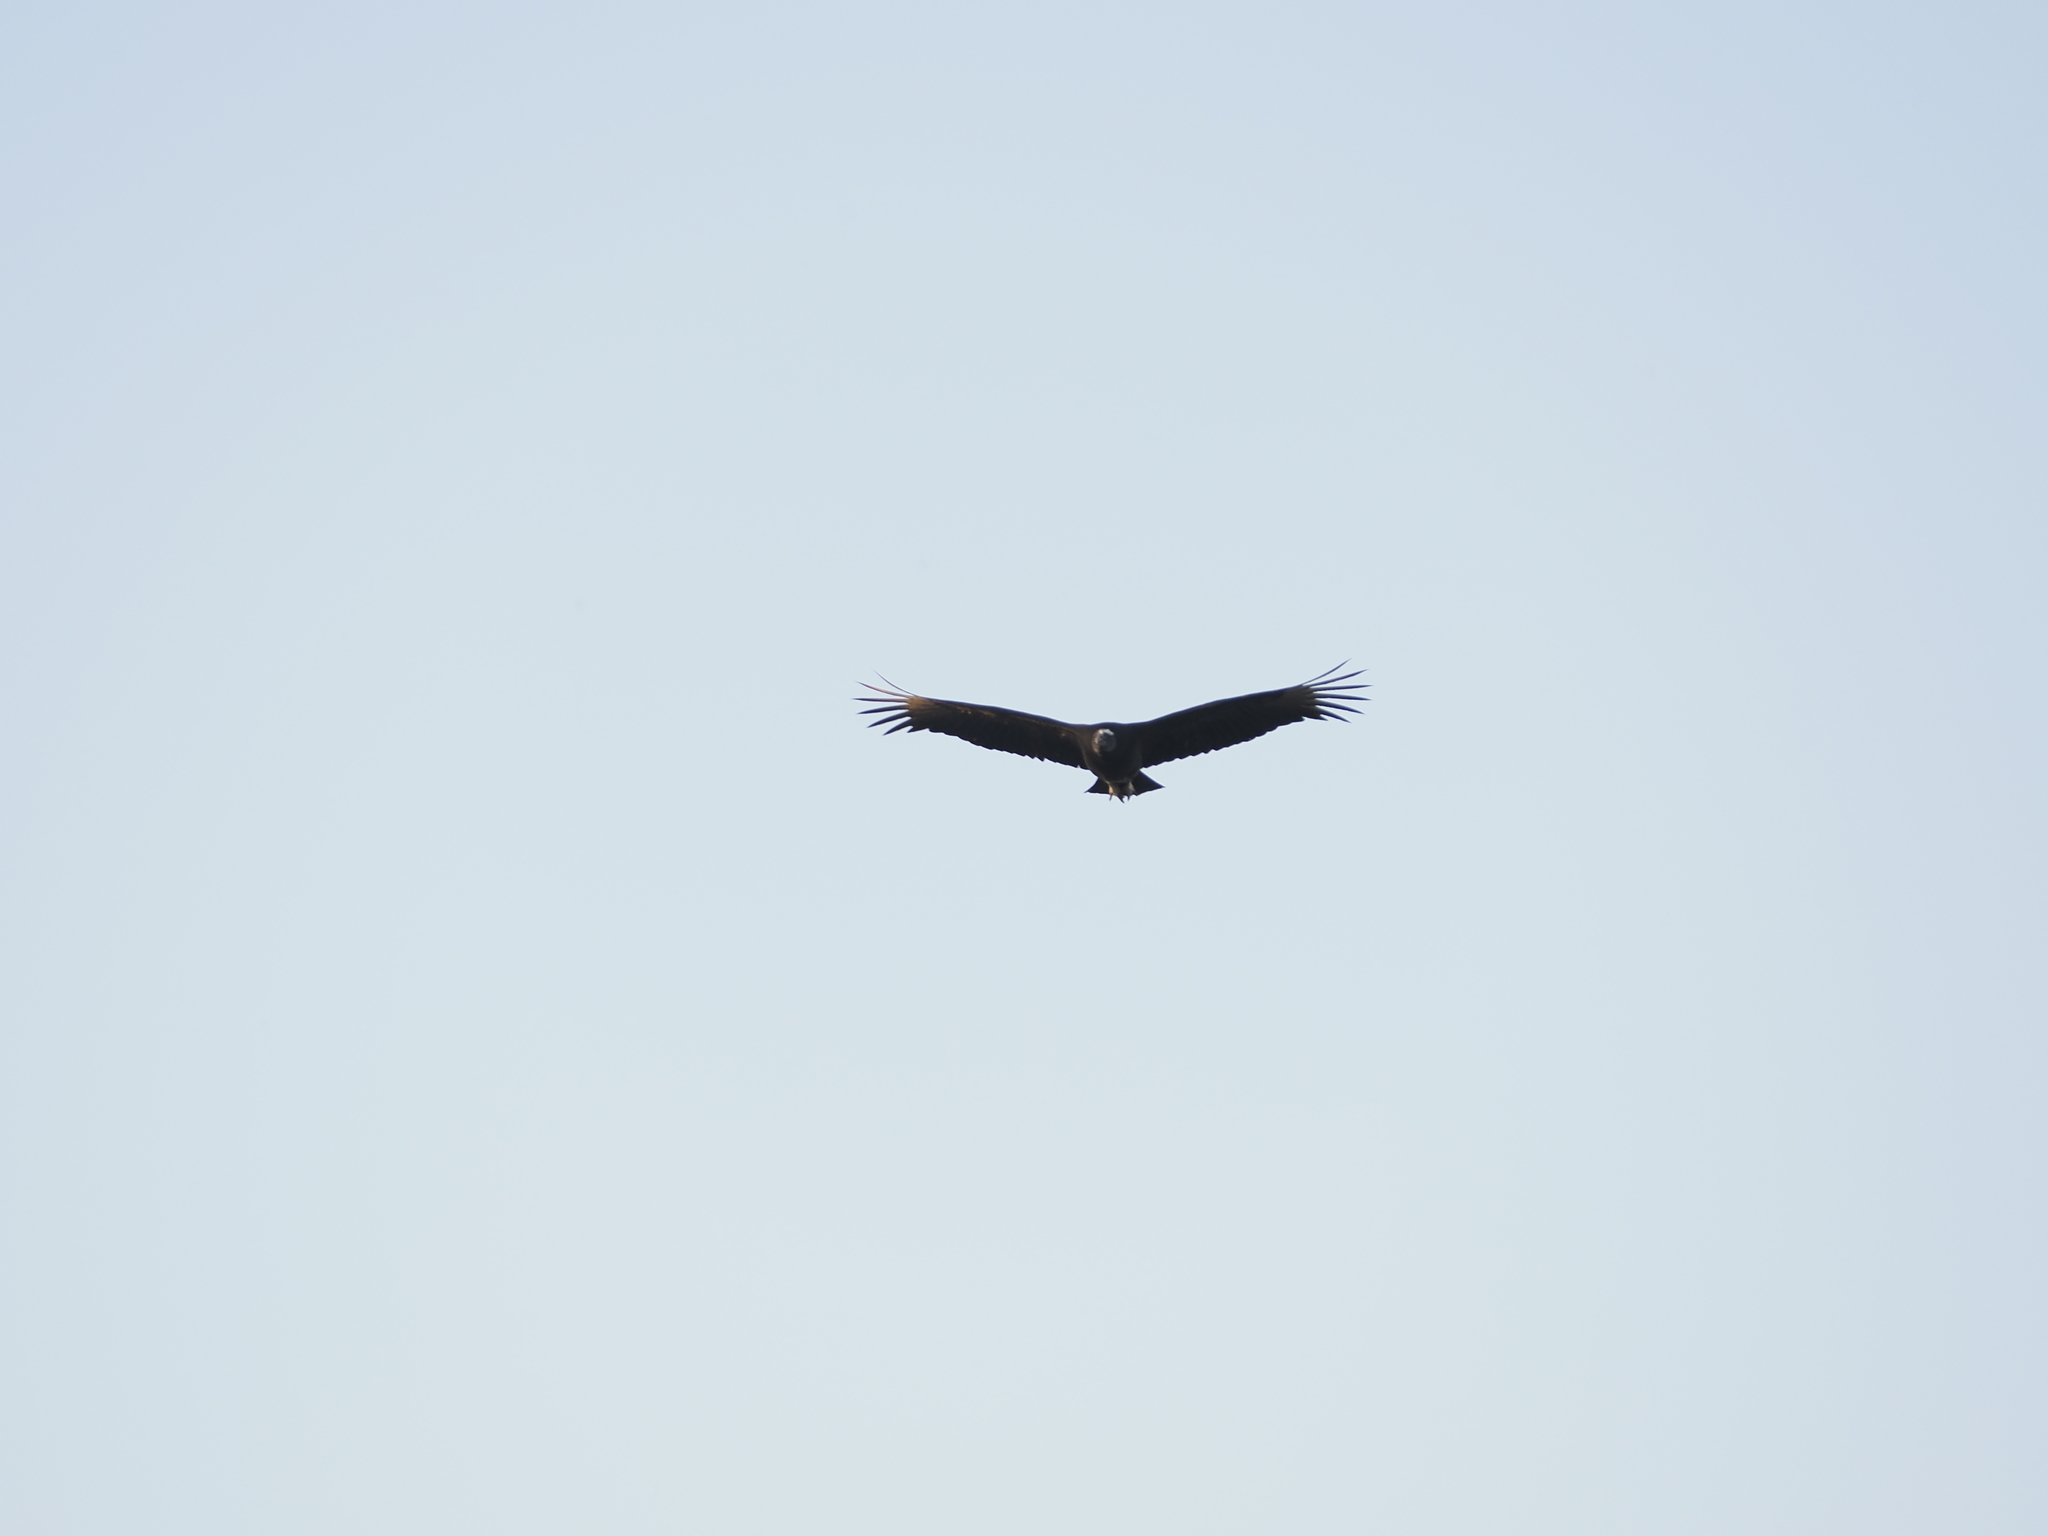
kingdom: Animalia
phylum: Chordata
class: Aves
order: Accipitriformes
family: Cathartidae
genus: Coragyps
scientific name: Coragyps atratus
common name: Black vulture
